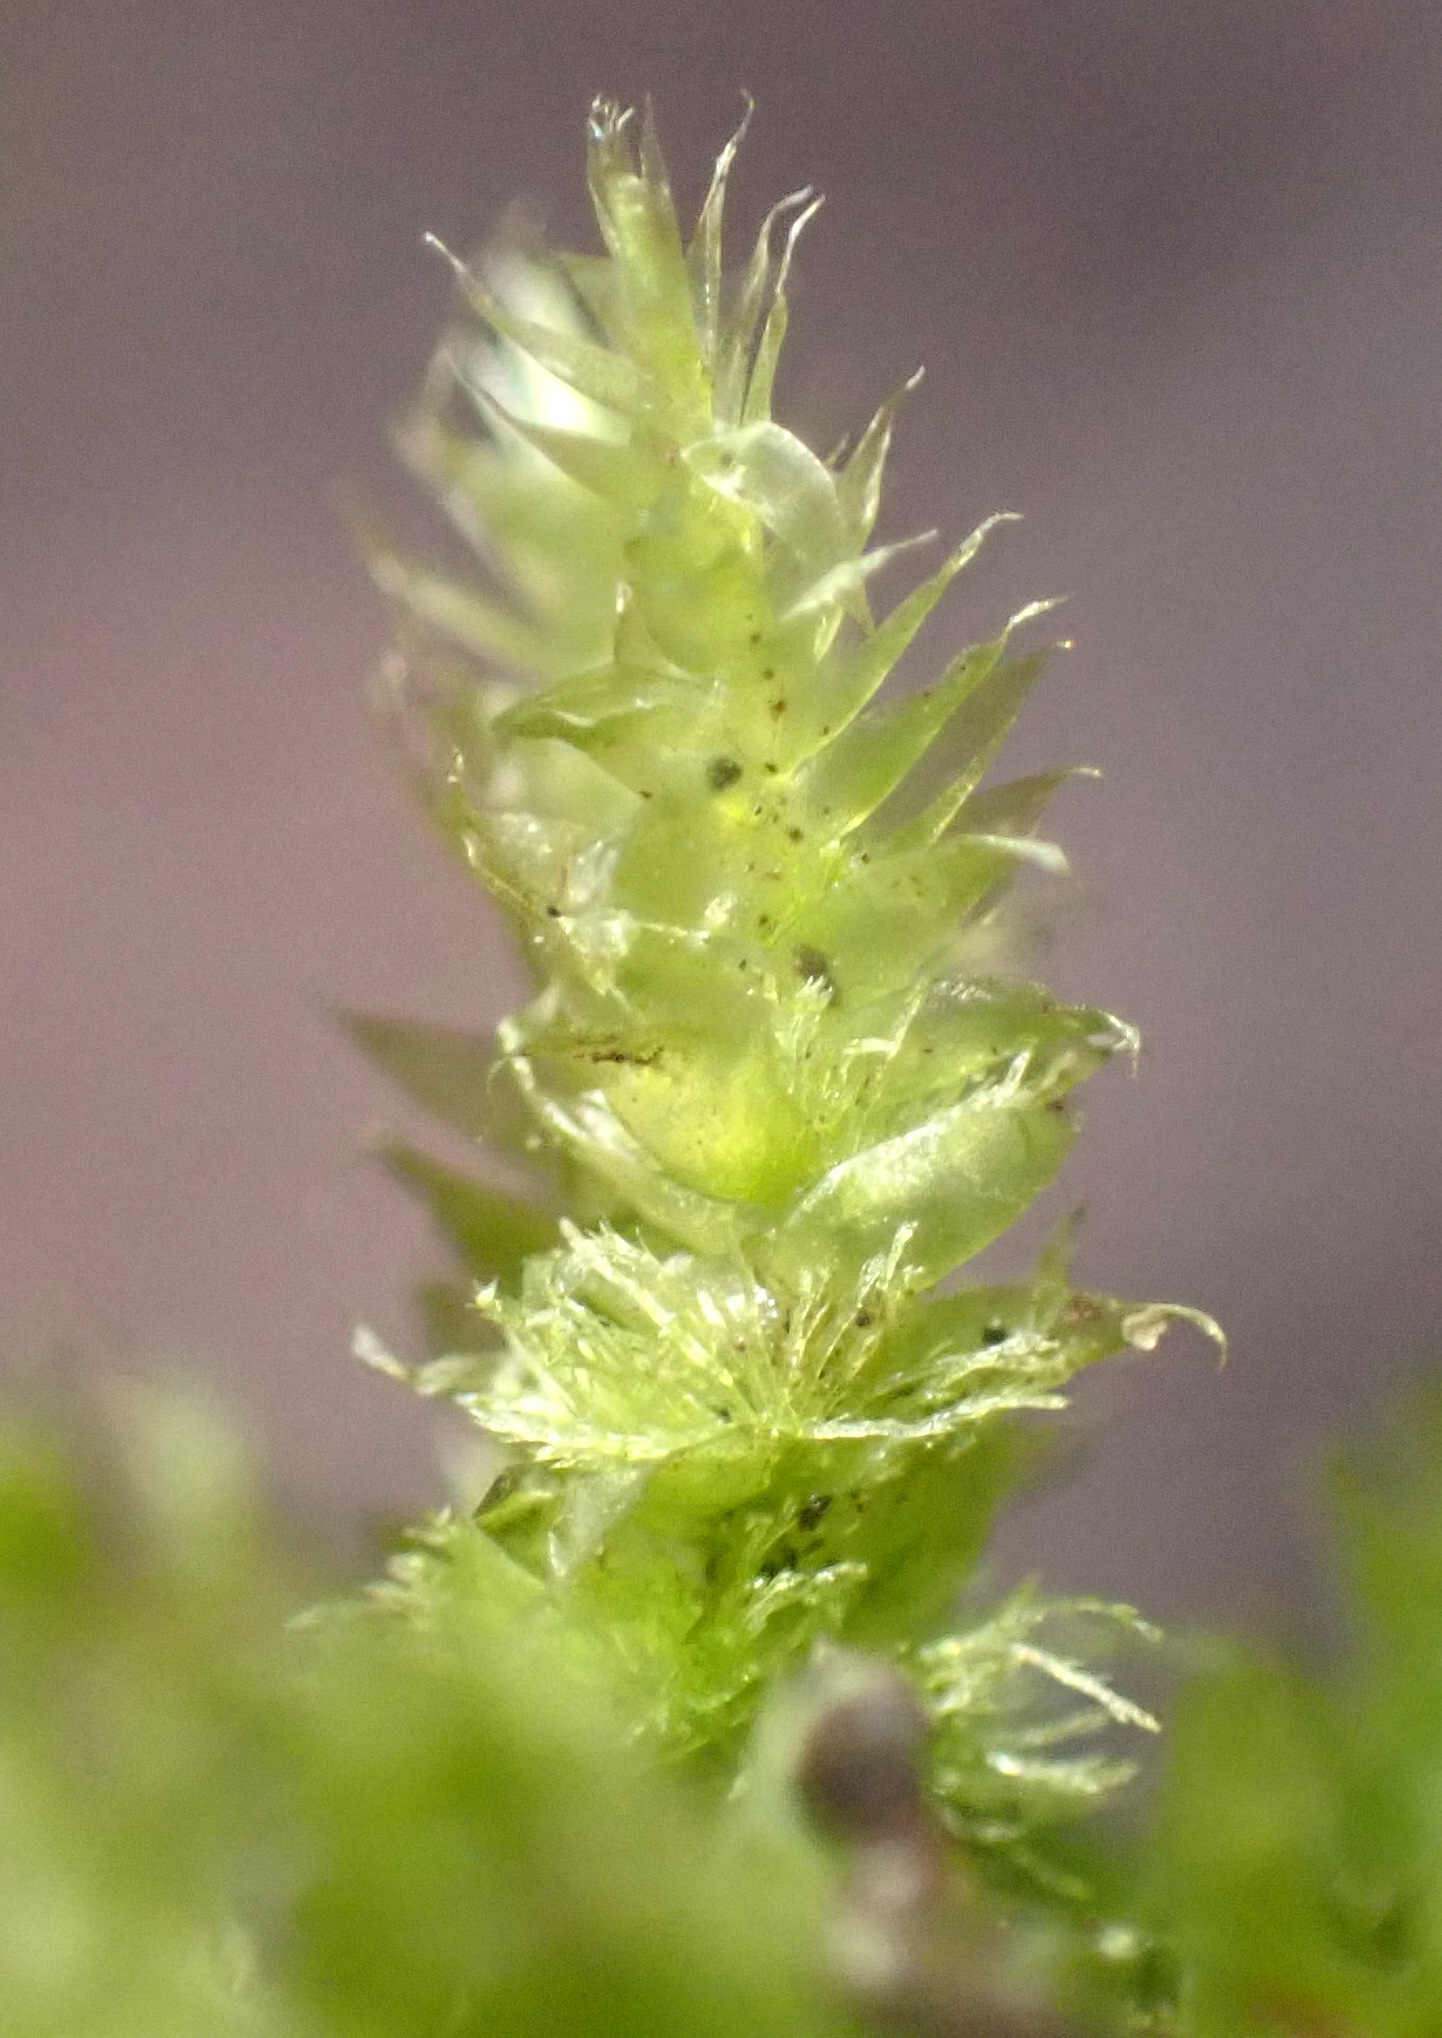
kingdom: Plantae
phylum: Bryophyta
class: Bryopsida
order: Hypnales
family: Plagiotheciaceae
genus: Pseudotaxiphyllum
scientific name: Pseudotaxiphyllum elegans
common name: Elegant silk moss
